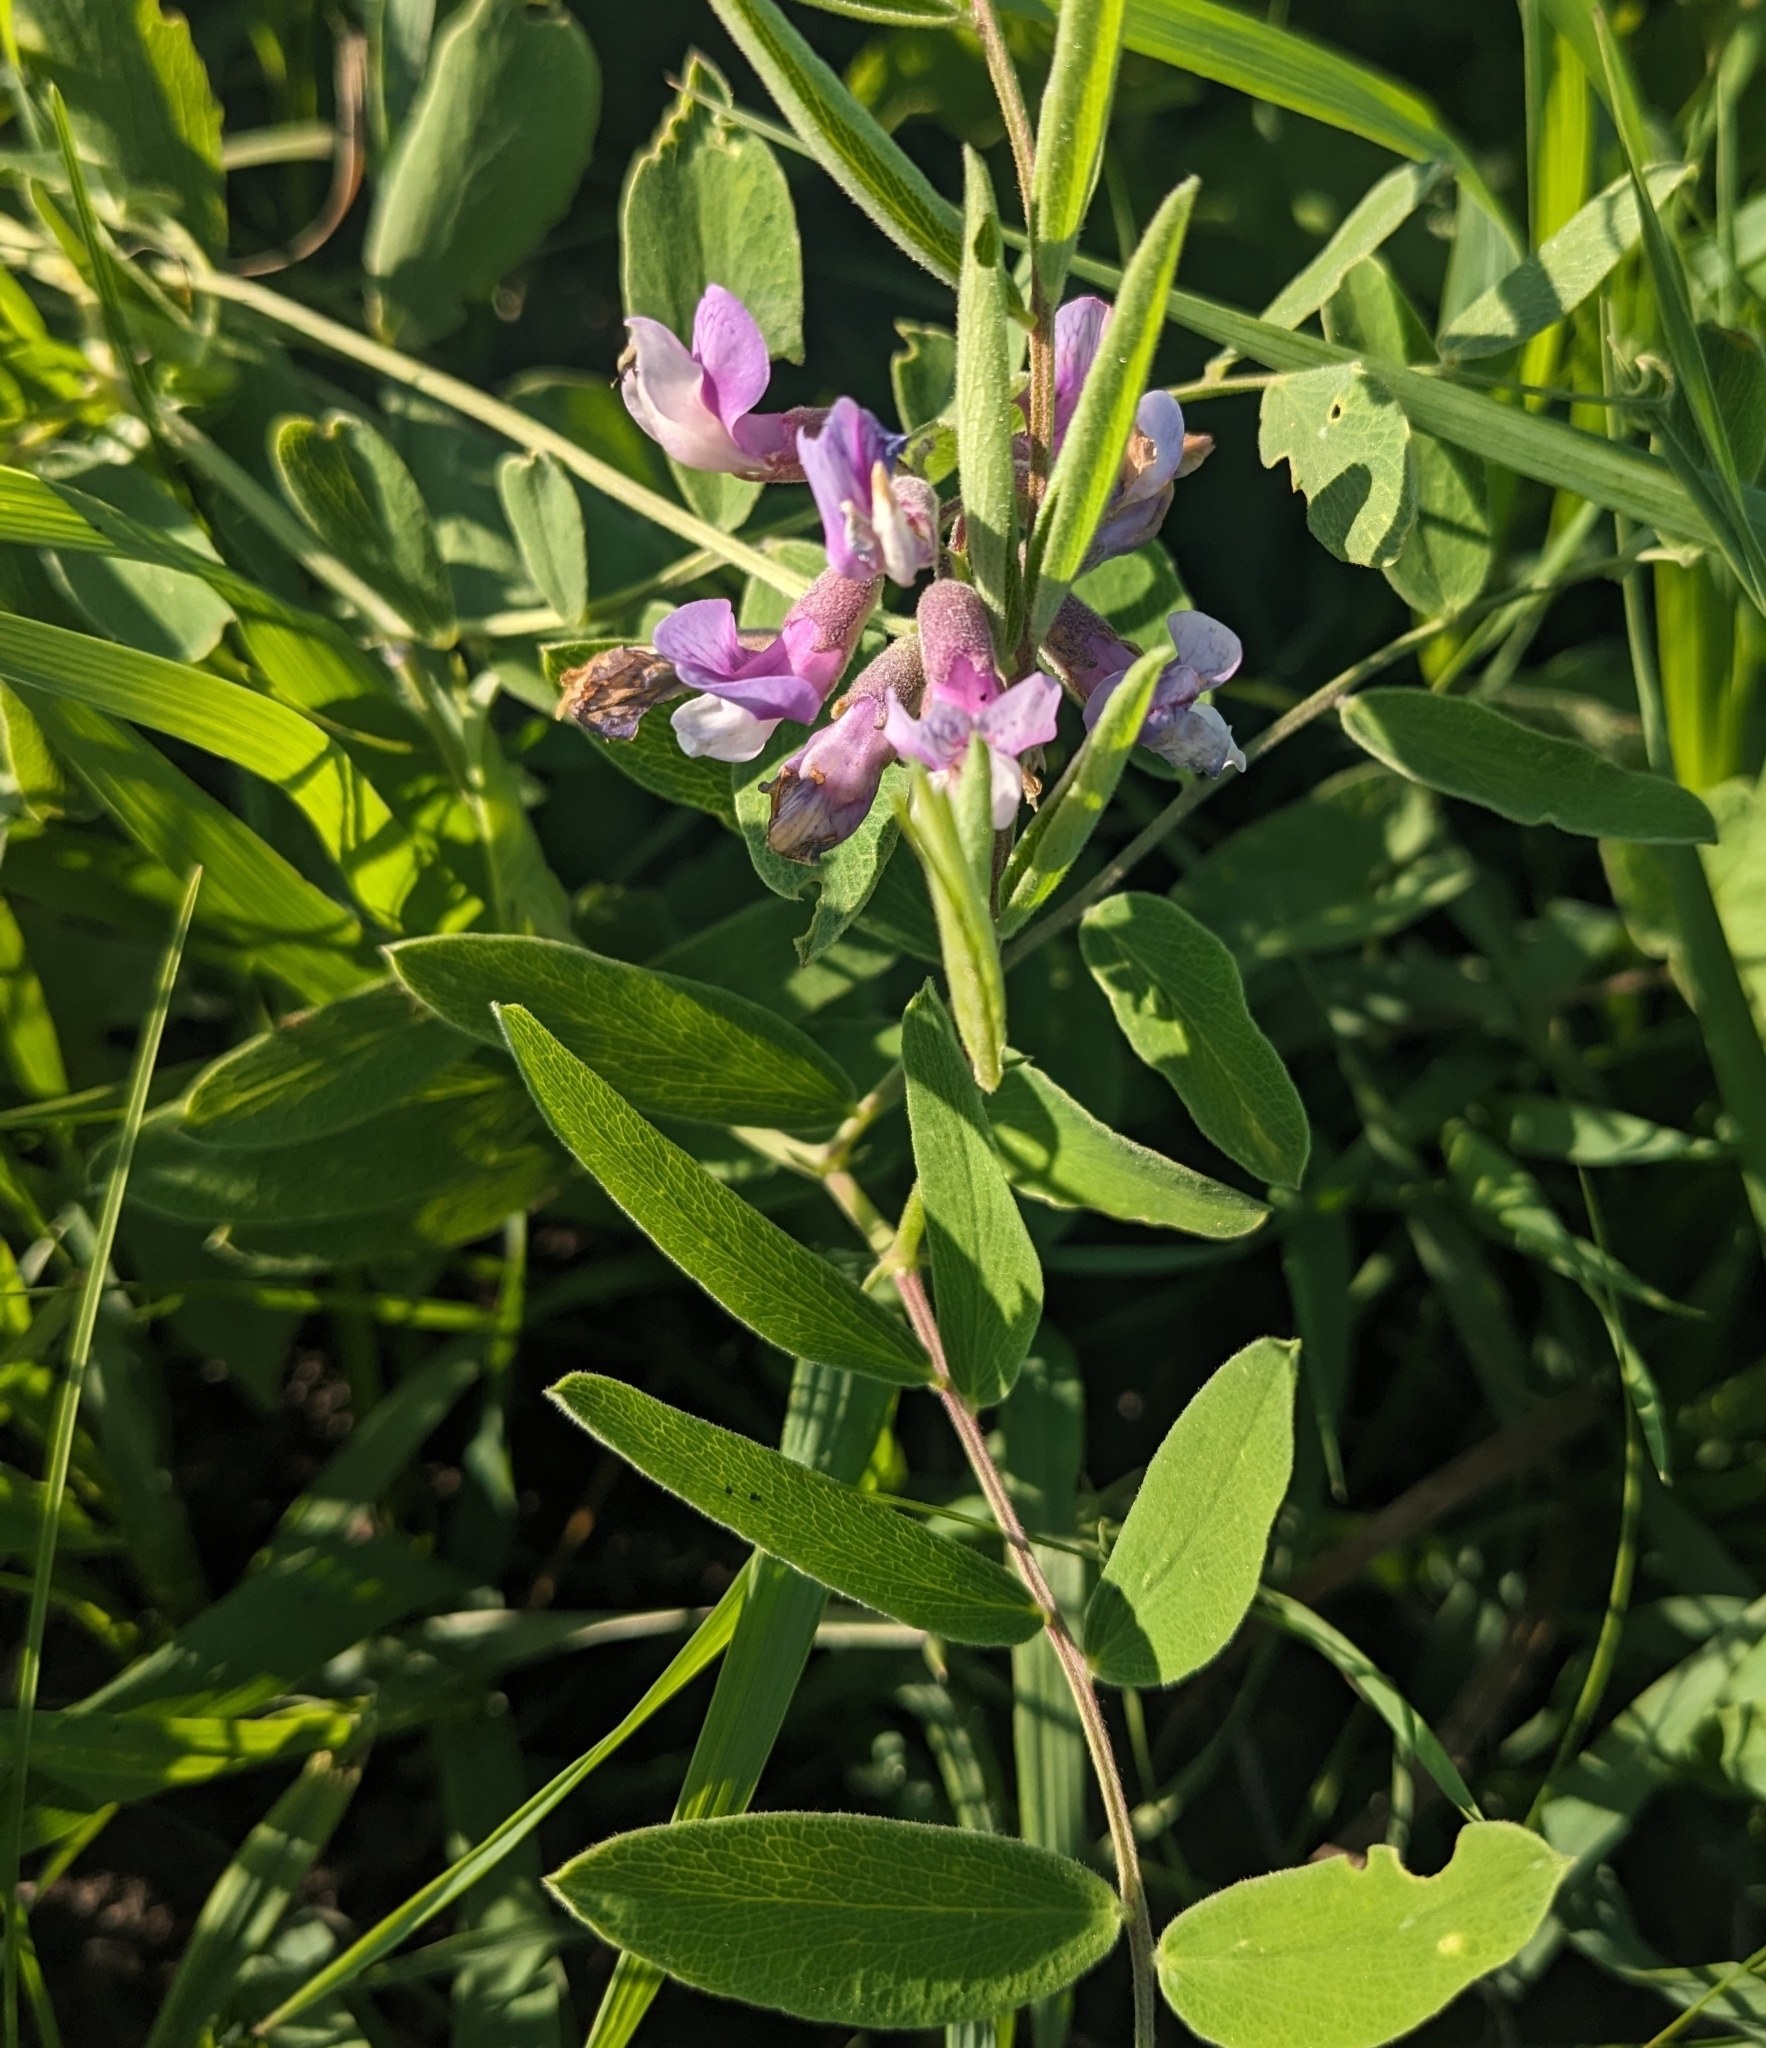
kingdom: Plantae
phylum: Tracheophyta
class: Magnoliopsida
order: Fabales
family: Fabaceae
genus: Lathyrus
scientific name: Lathyrus venosus
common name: Forest-pea
